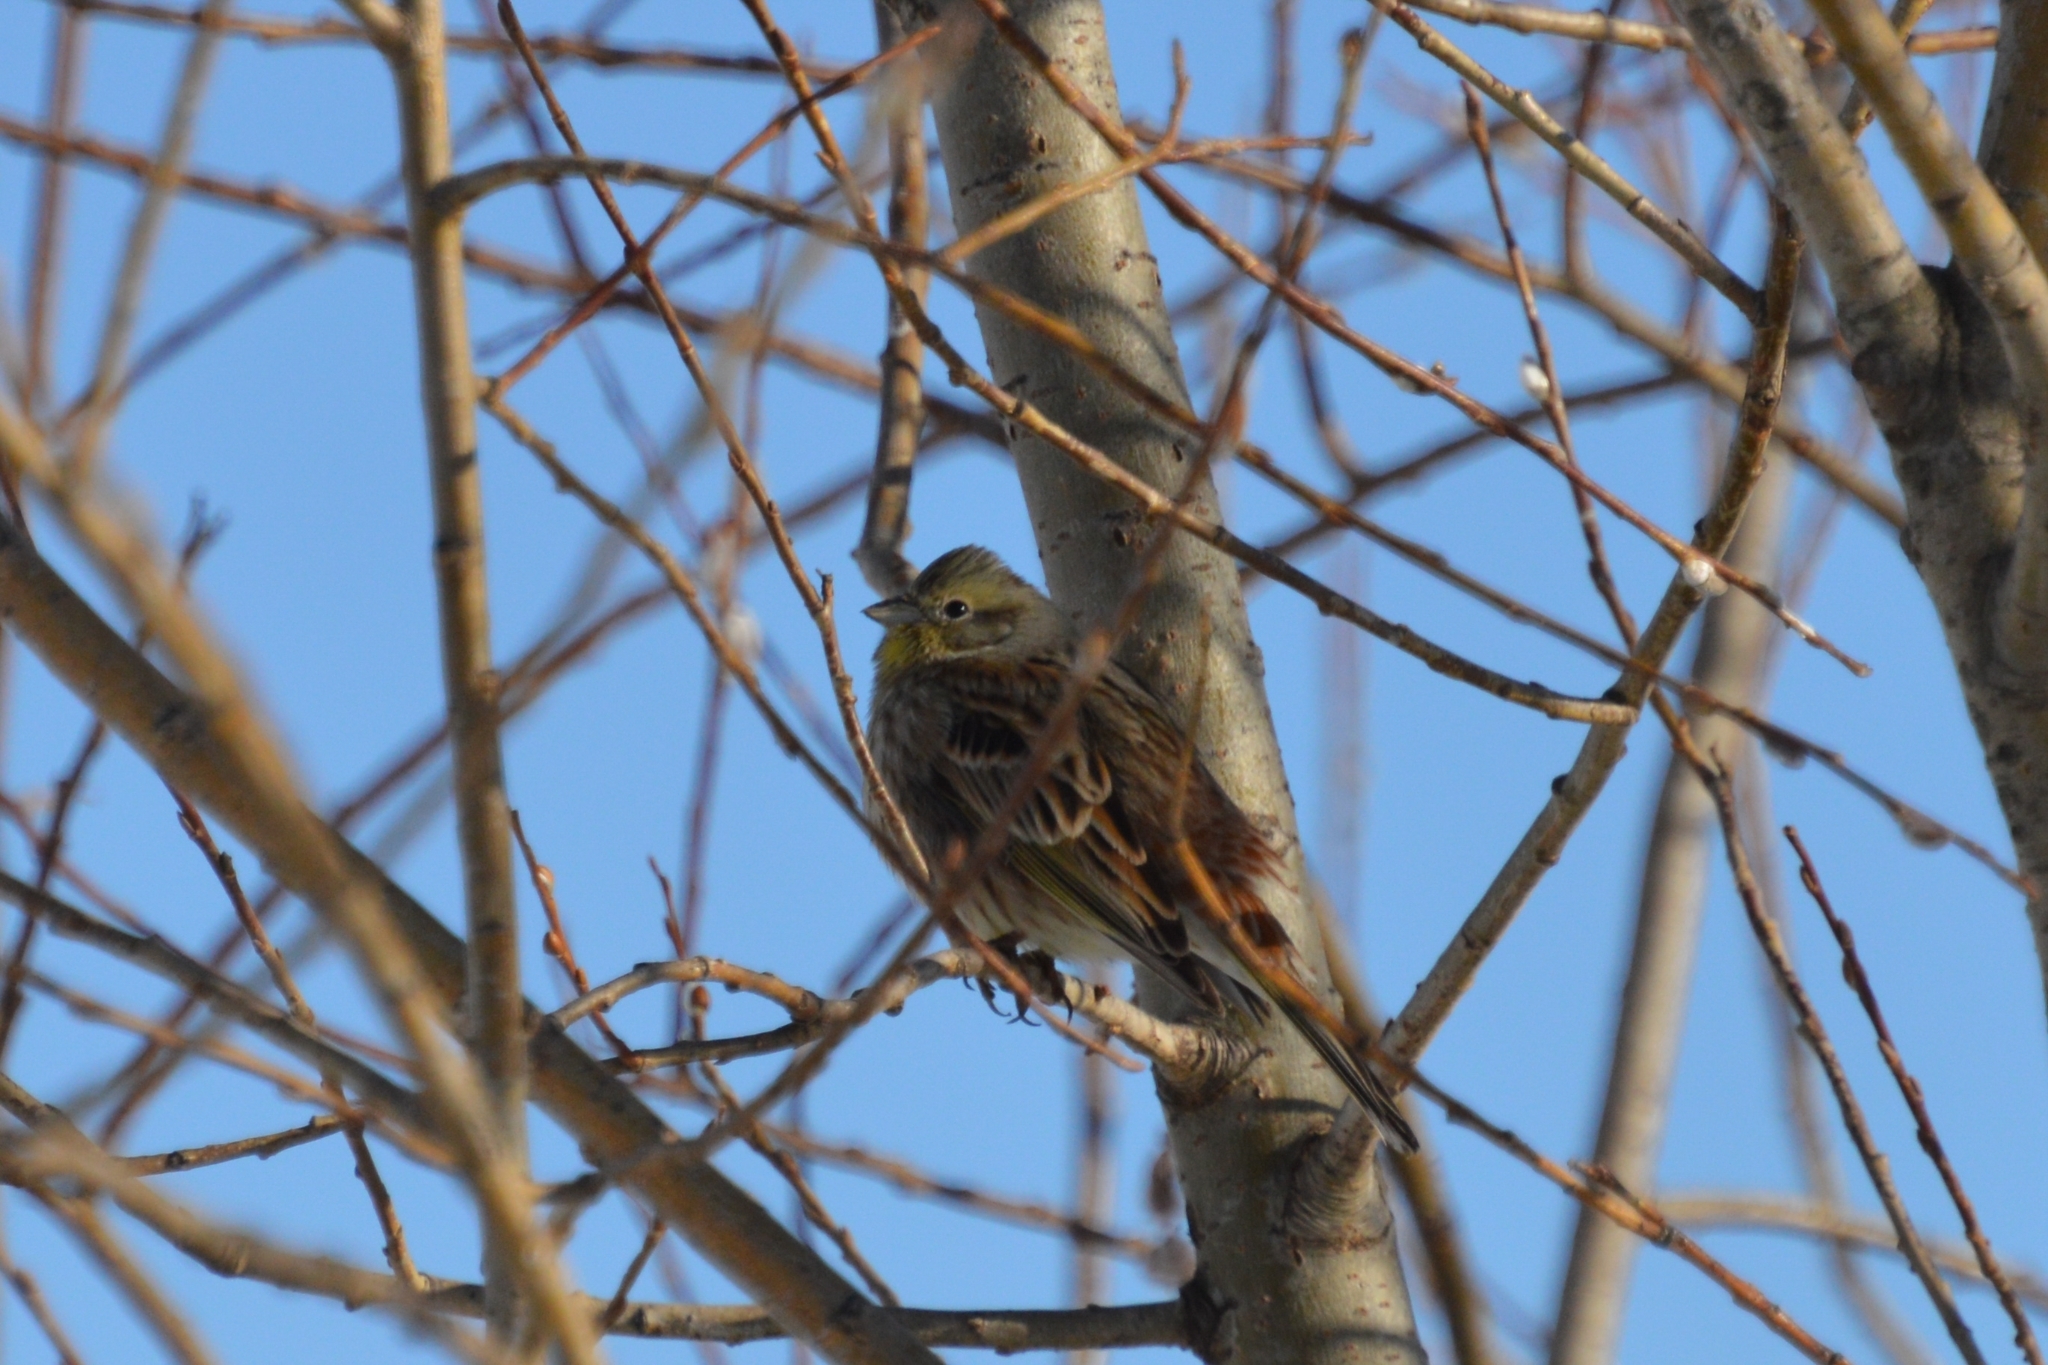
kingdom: Animalia
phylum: Chordata
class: Aves
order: Passeriformes
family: Emberizidae
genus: Emberiza
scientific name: Emberiza citrinella
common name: Yellowhammer
